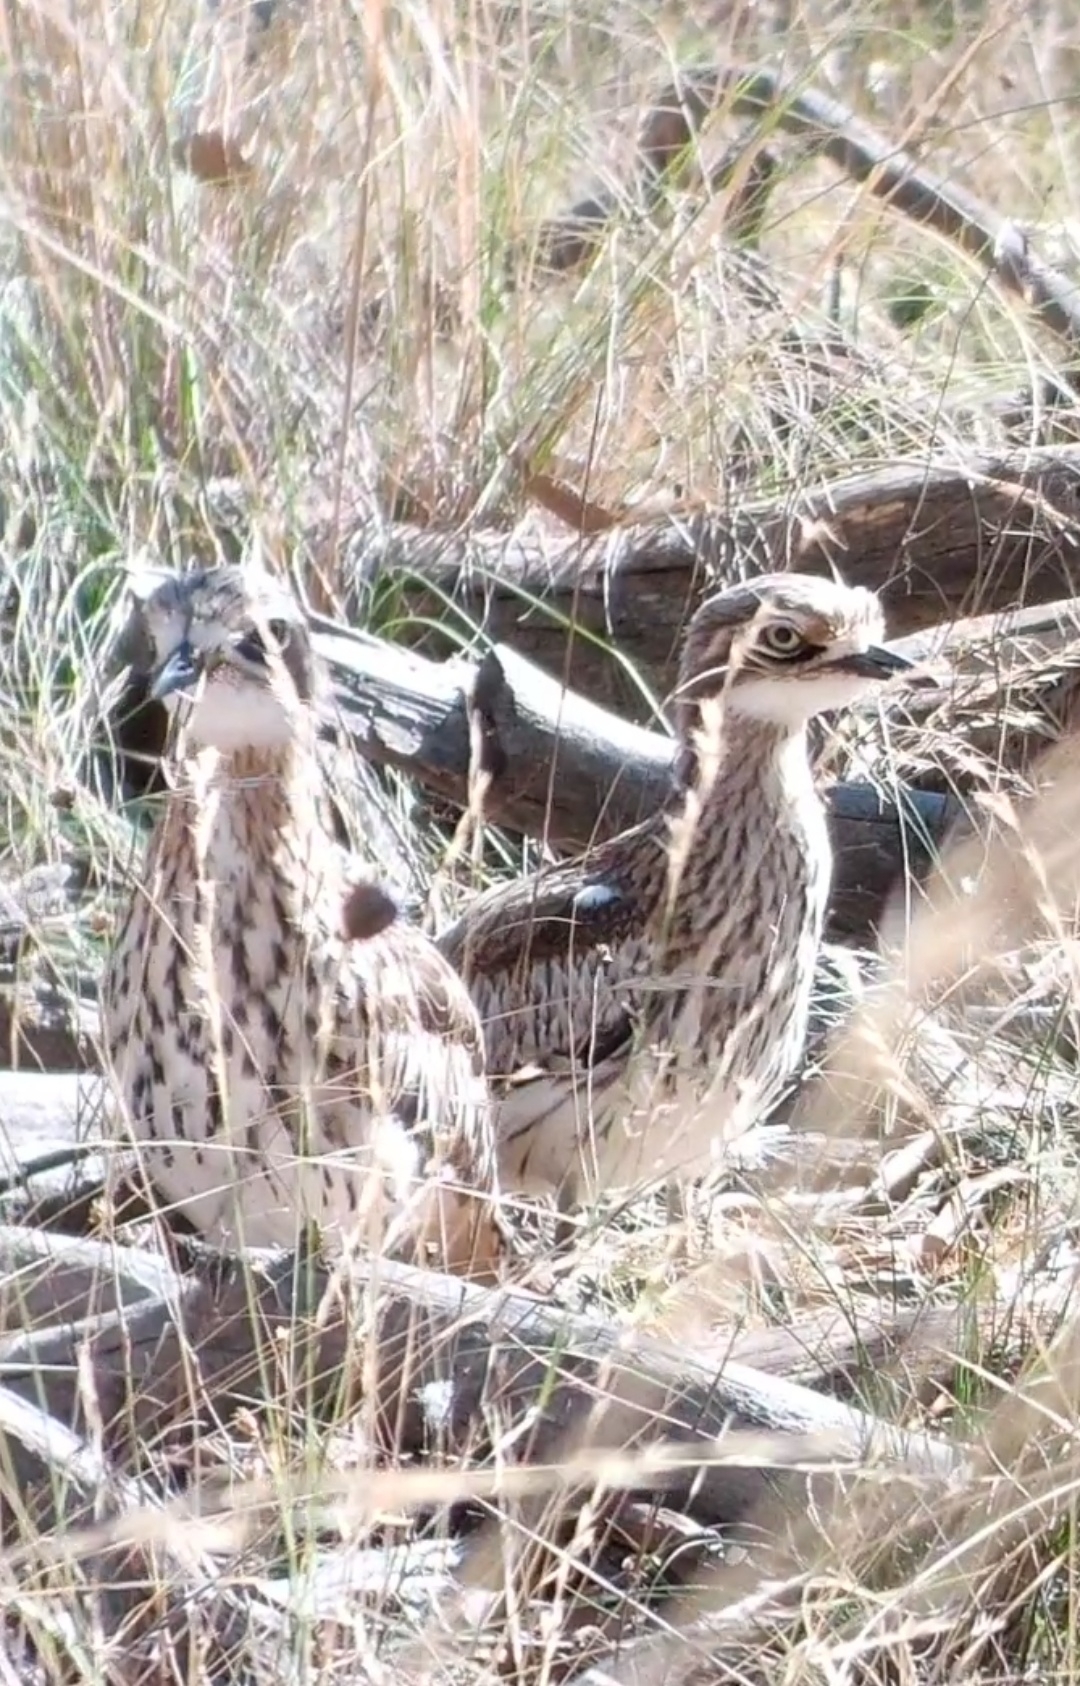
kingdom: Animalia
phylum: Chordata
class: Aves
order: Charadriiformes
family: Burhinidae
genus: Burhinus
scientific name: Burhinus grallarius
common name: Bush stone-curlew
